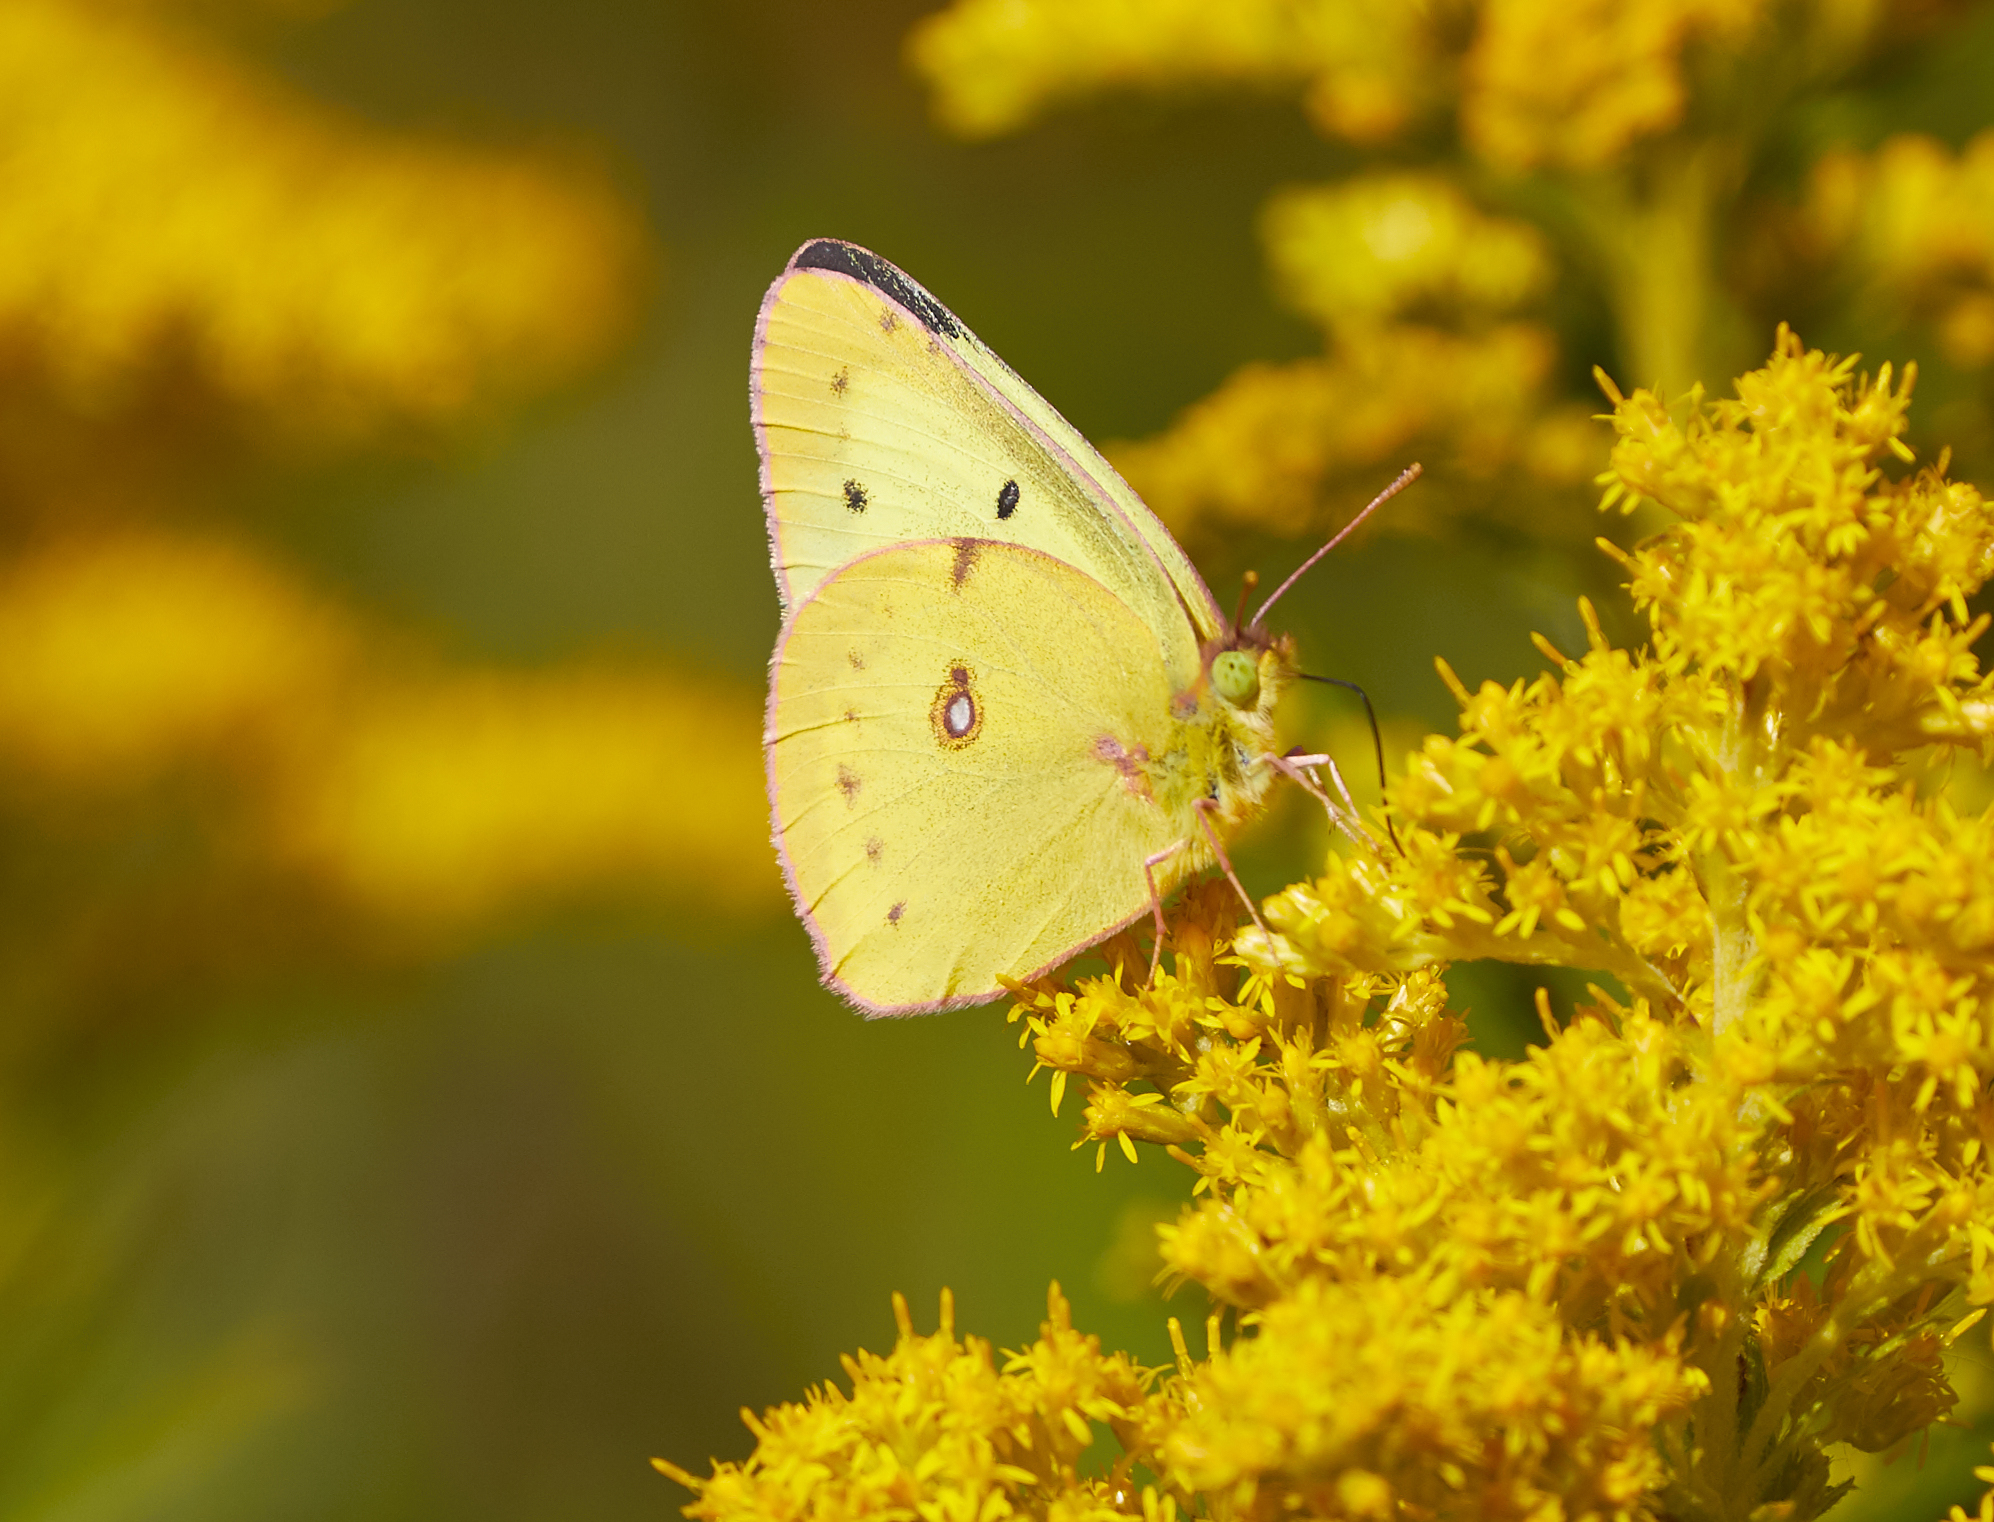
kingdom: Animalia
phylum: Arthropoda
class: Insecta
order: Lepidoptera
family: Pieridae
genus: Colias
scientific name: Colias philodice
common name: Clouded sulphur
